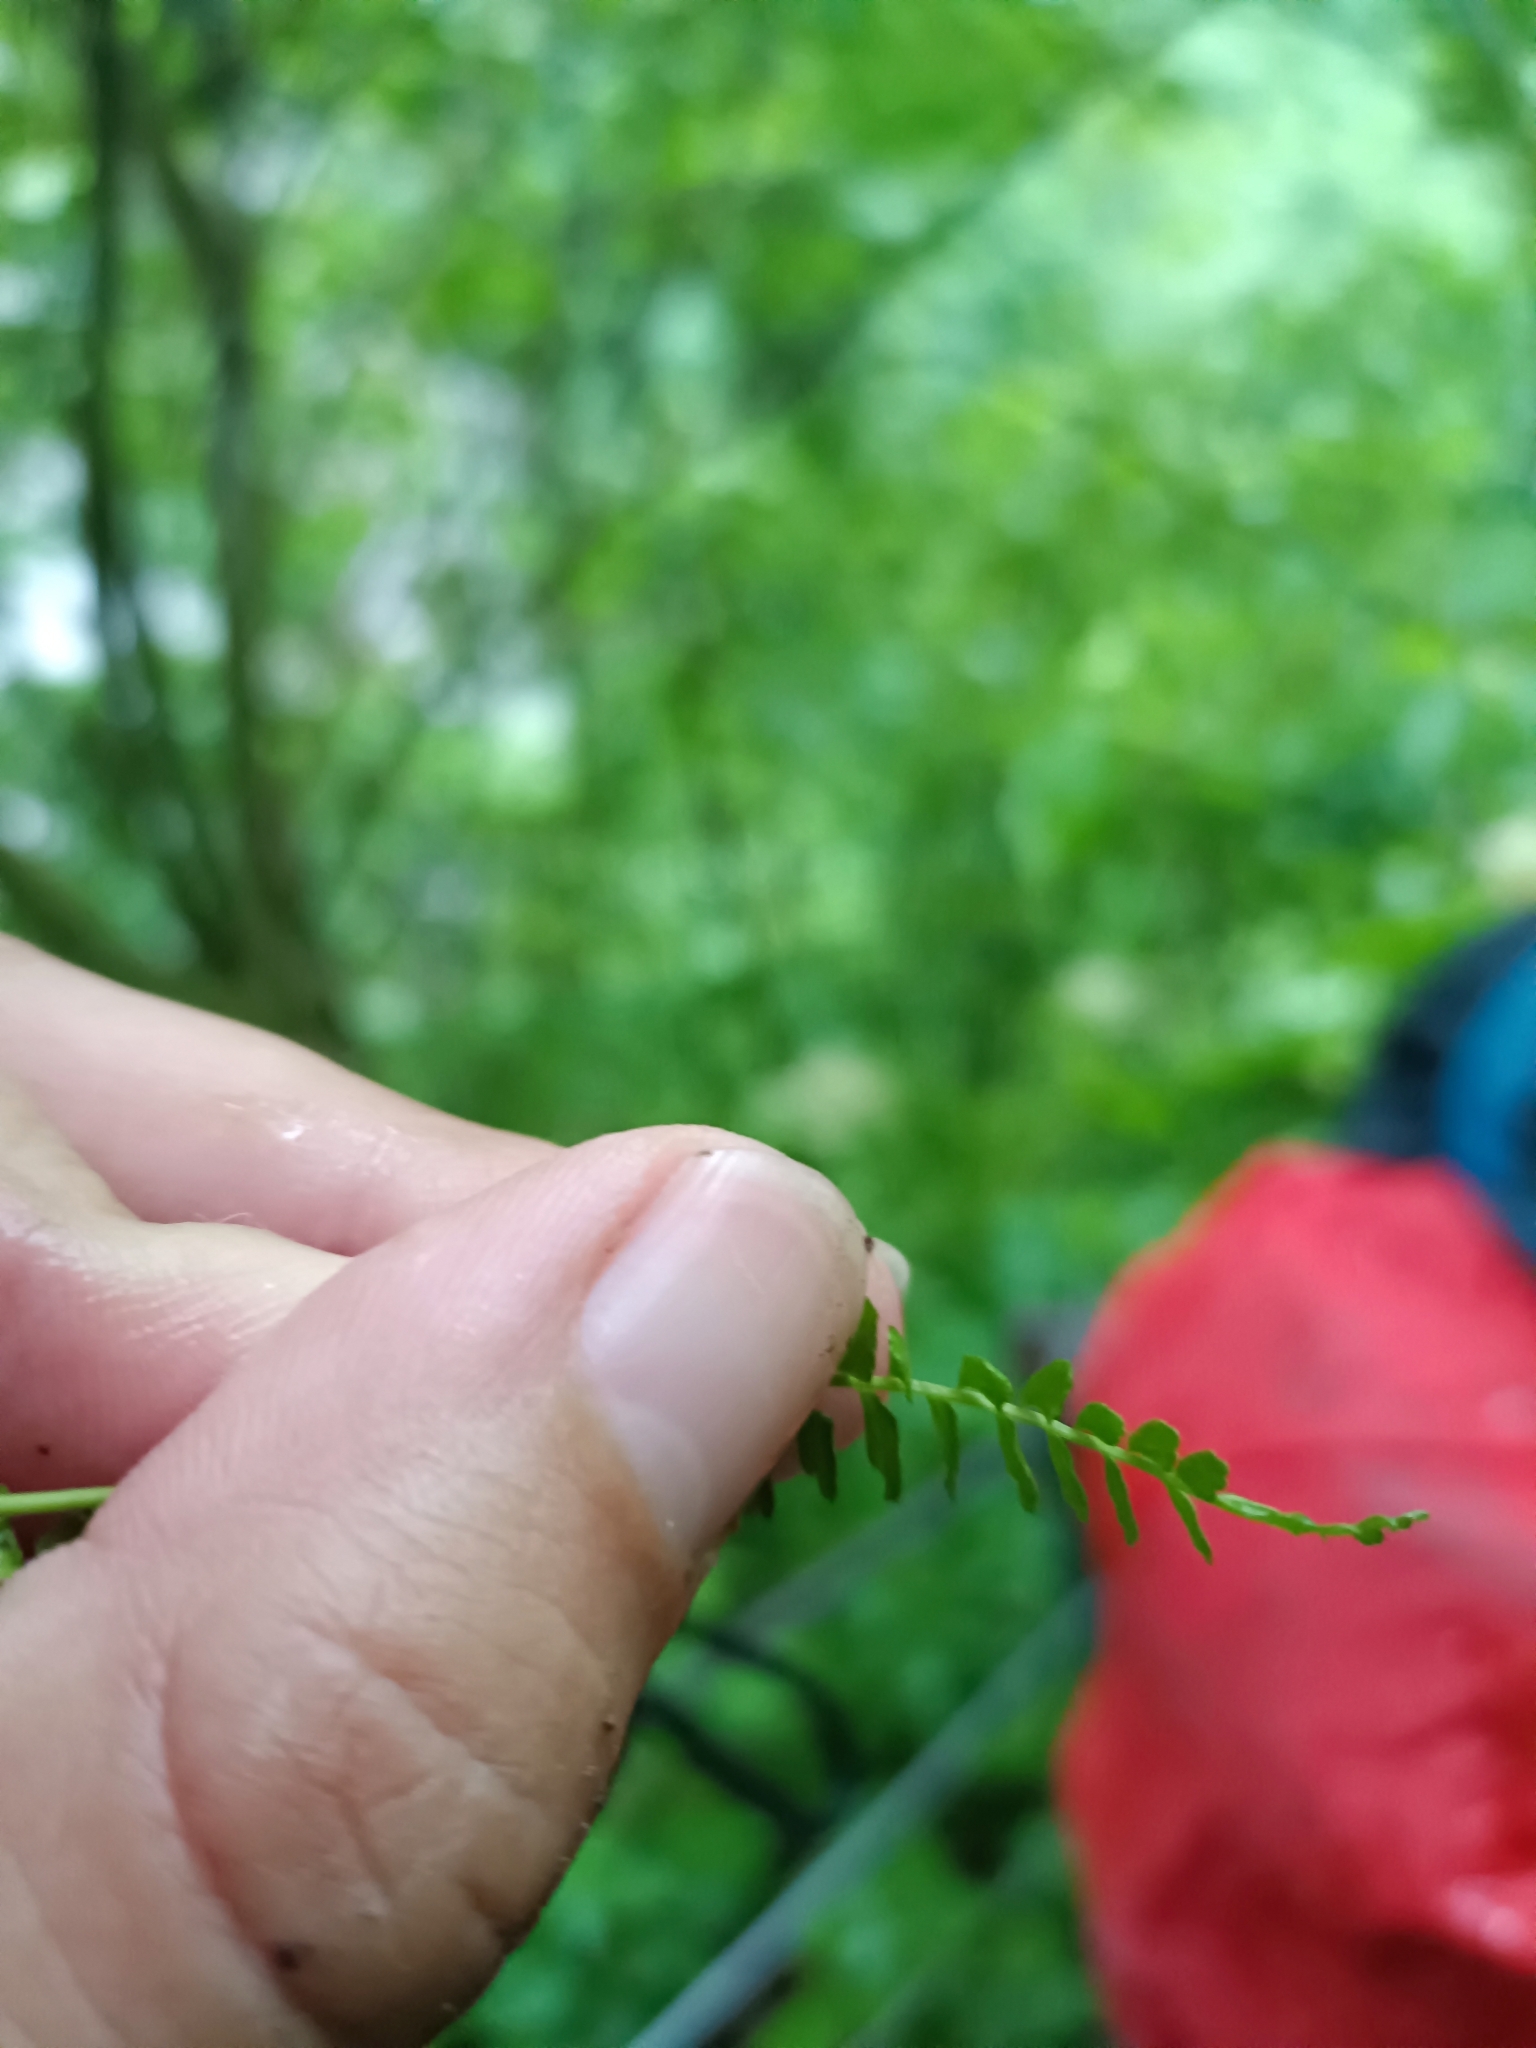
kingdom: Plantae
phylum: Tracheophyta
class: Polypodiopsida
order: Polypodiales
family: Aspleniaceae
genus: Asplenium
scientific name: Asplenium viride
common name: Green spleenwort
